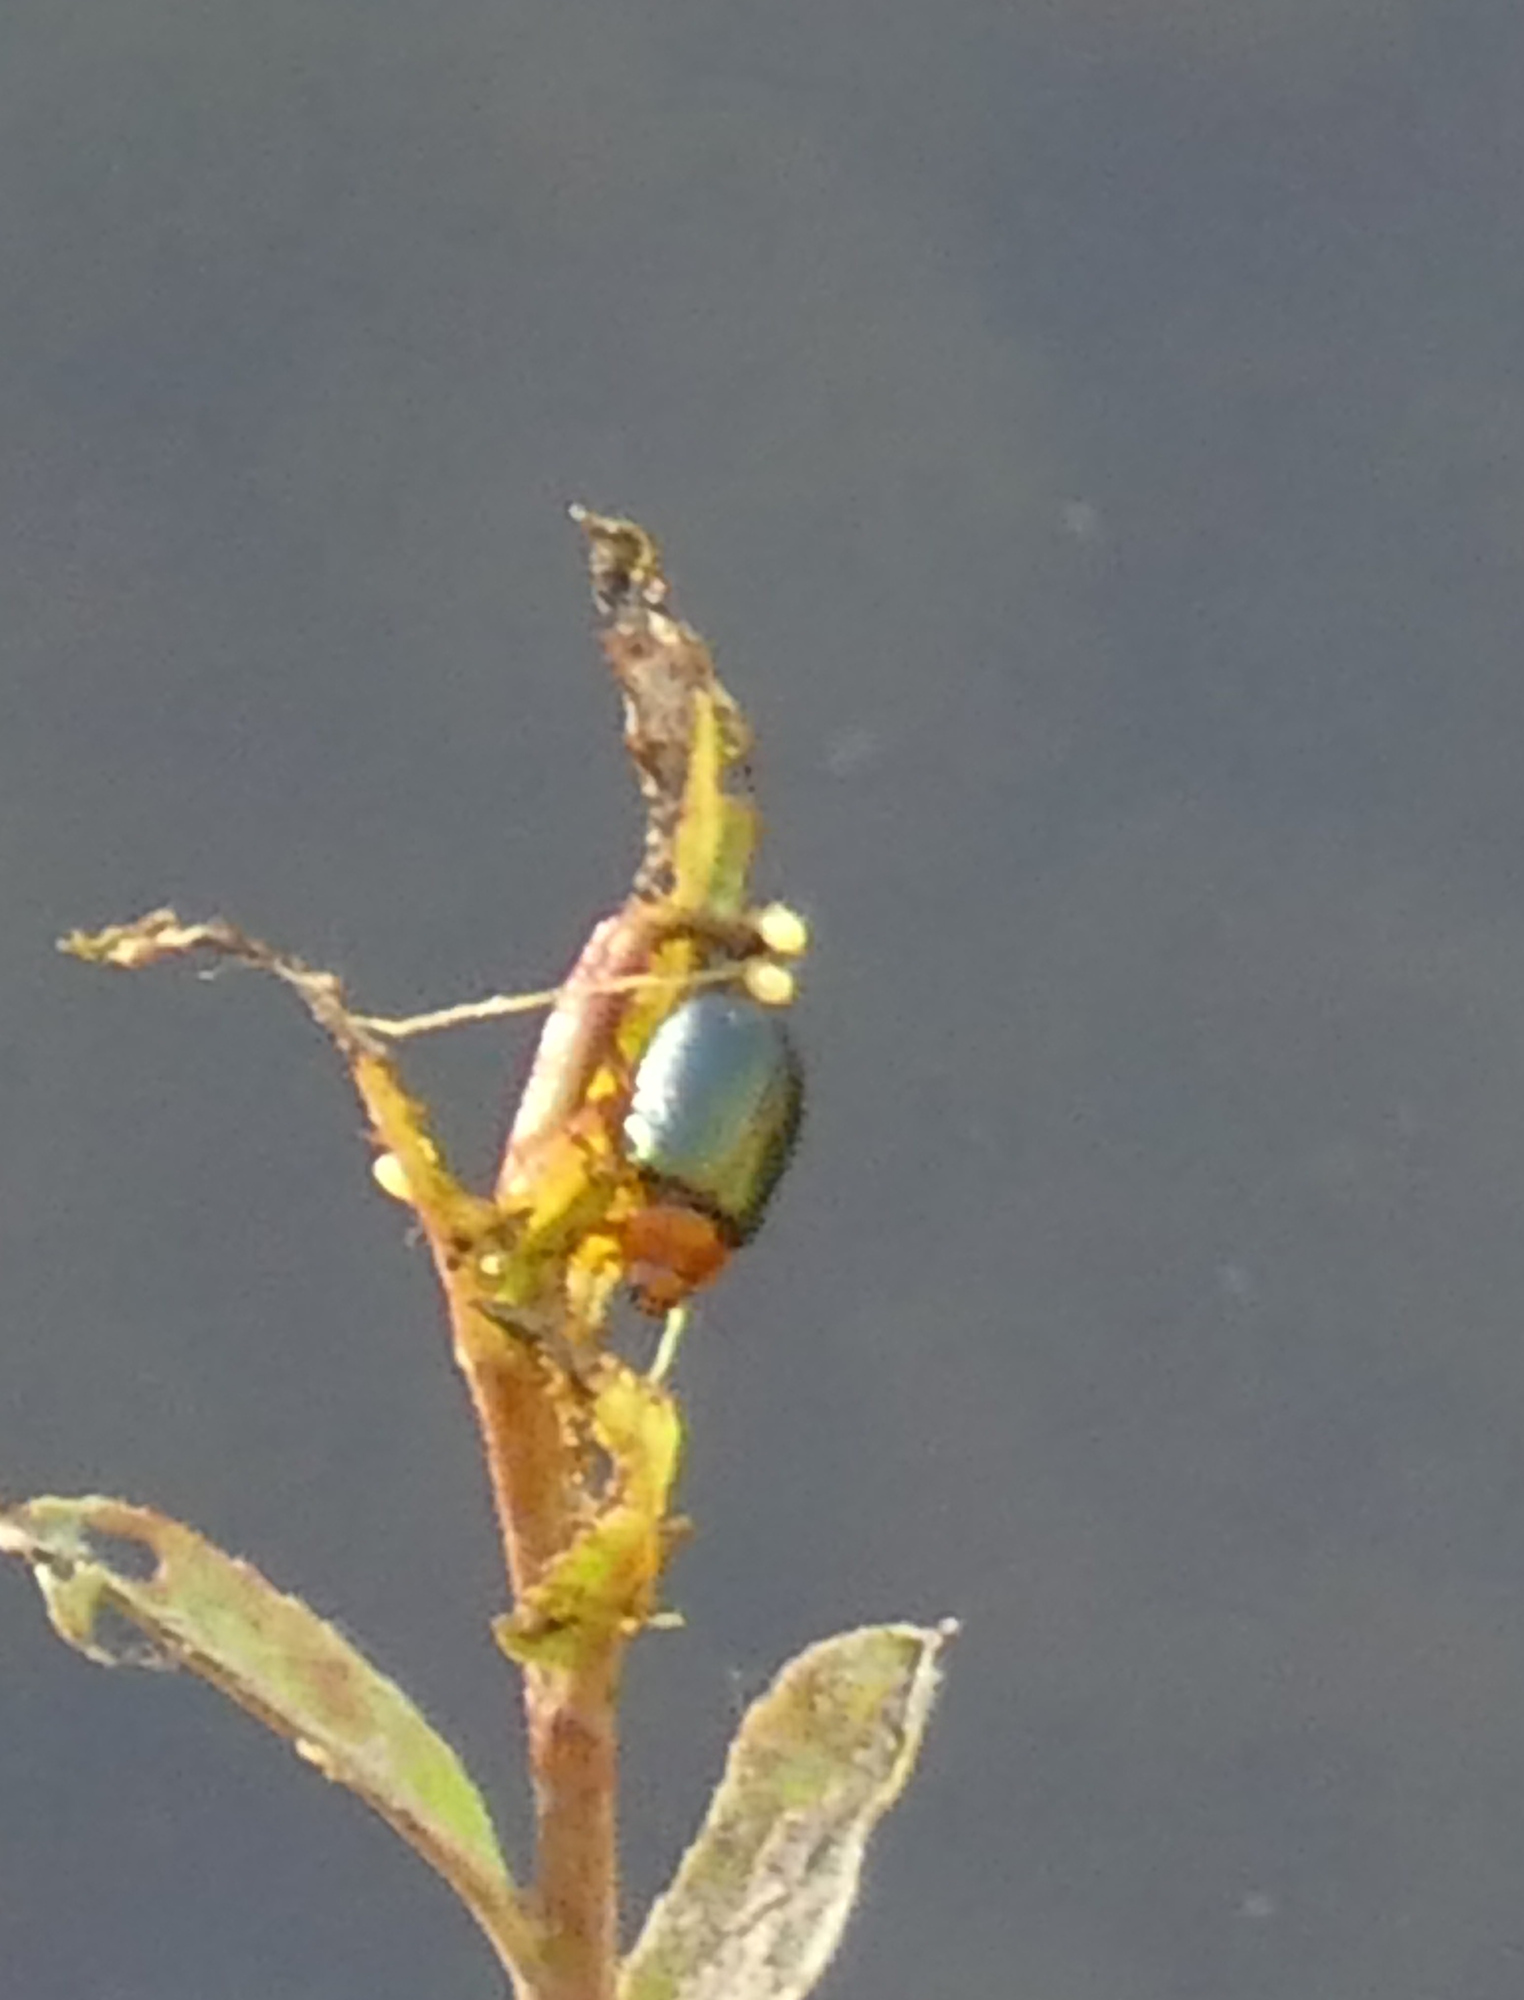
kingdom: Animalia
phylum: Arthropoda
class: Insecta
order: Coleoptera
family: Chrysomelidae
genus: Plagiodera
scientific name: Plagiodera arizonae
